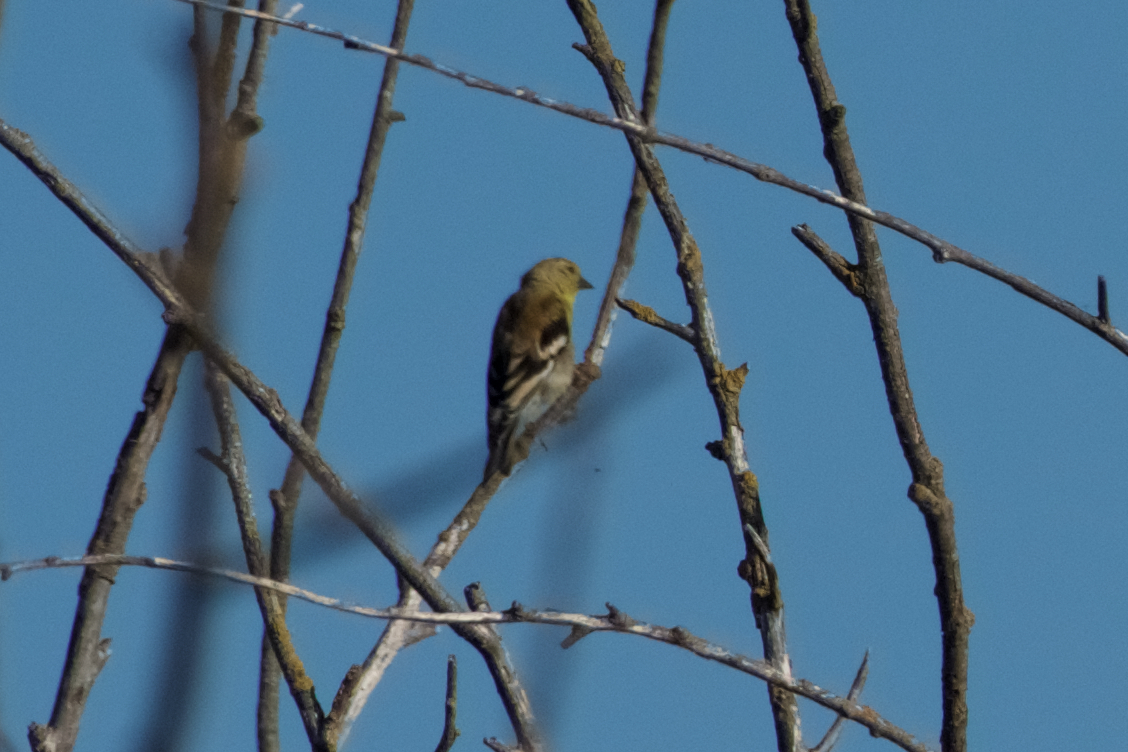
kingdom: Animalia
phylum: Chordata
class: Aves
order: Passeriformes
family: Fringillidae
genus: Spinus
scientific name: Spinus tristis
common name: American goldfinch
